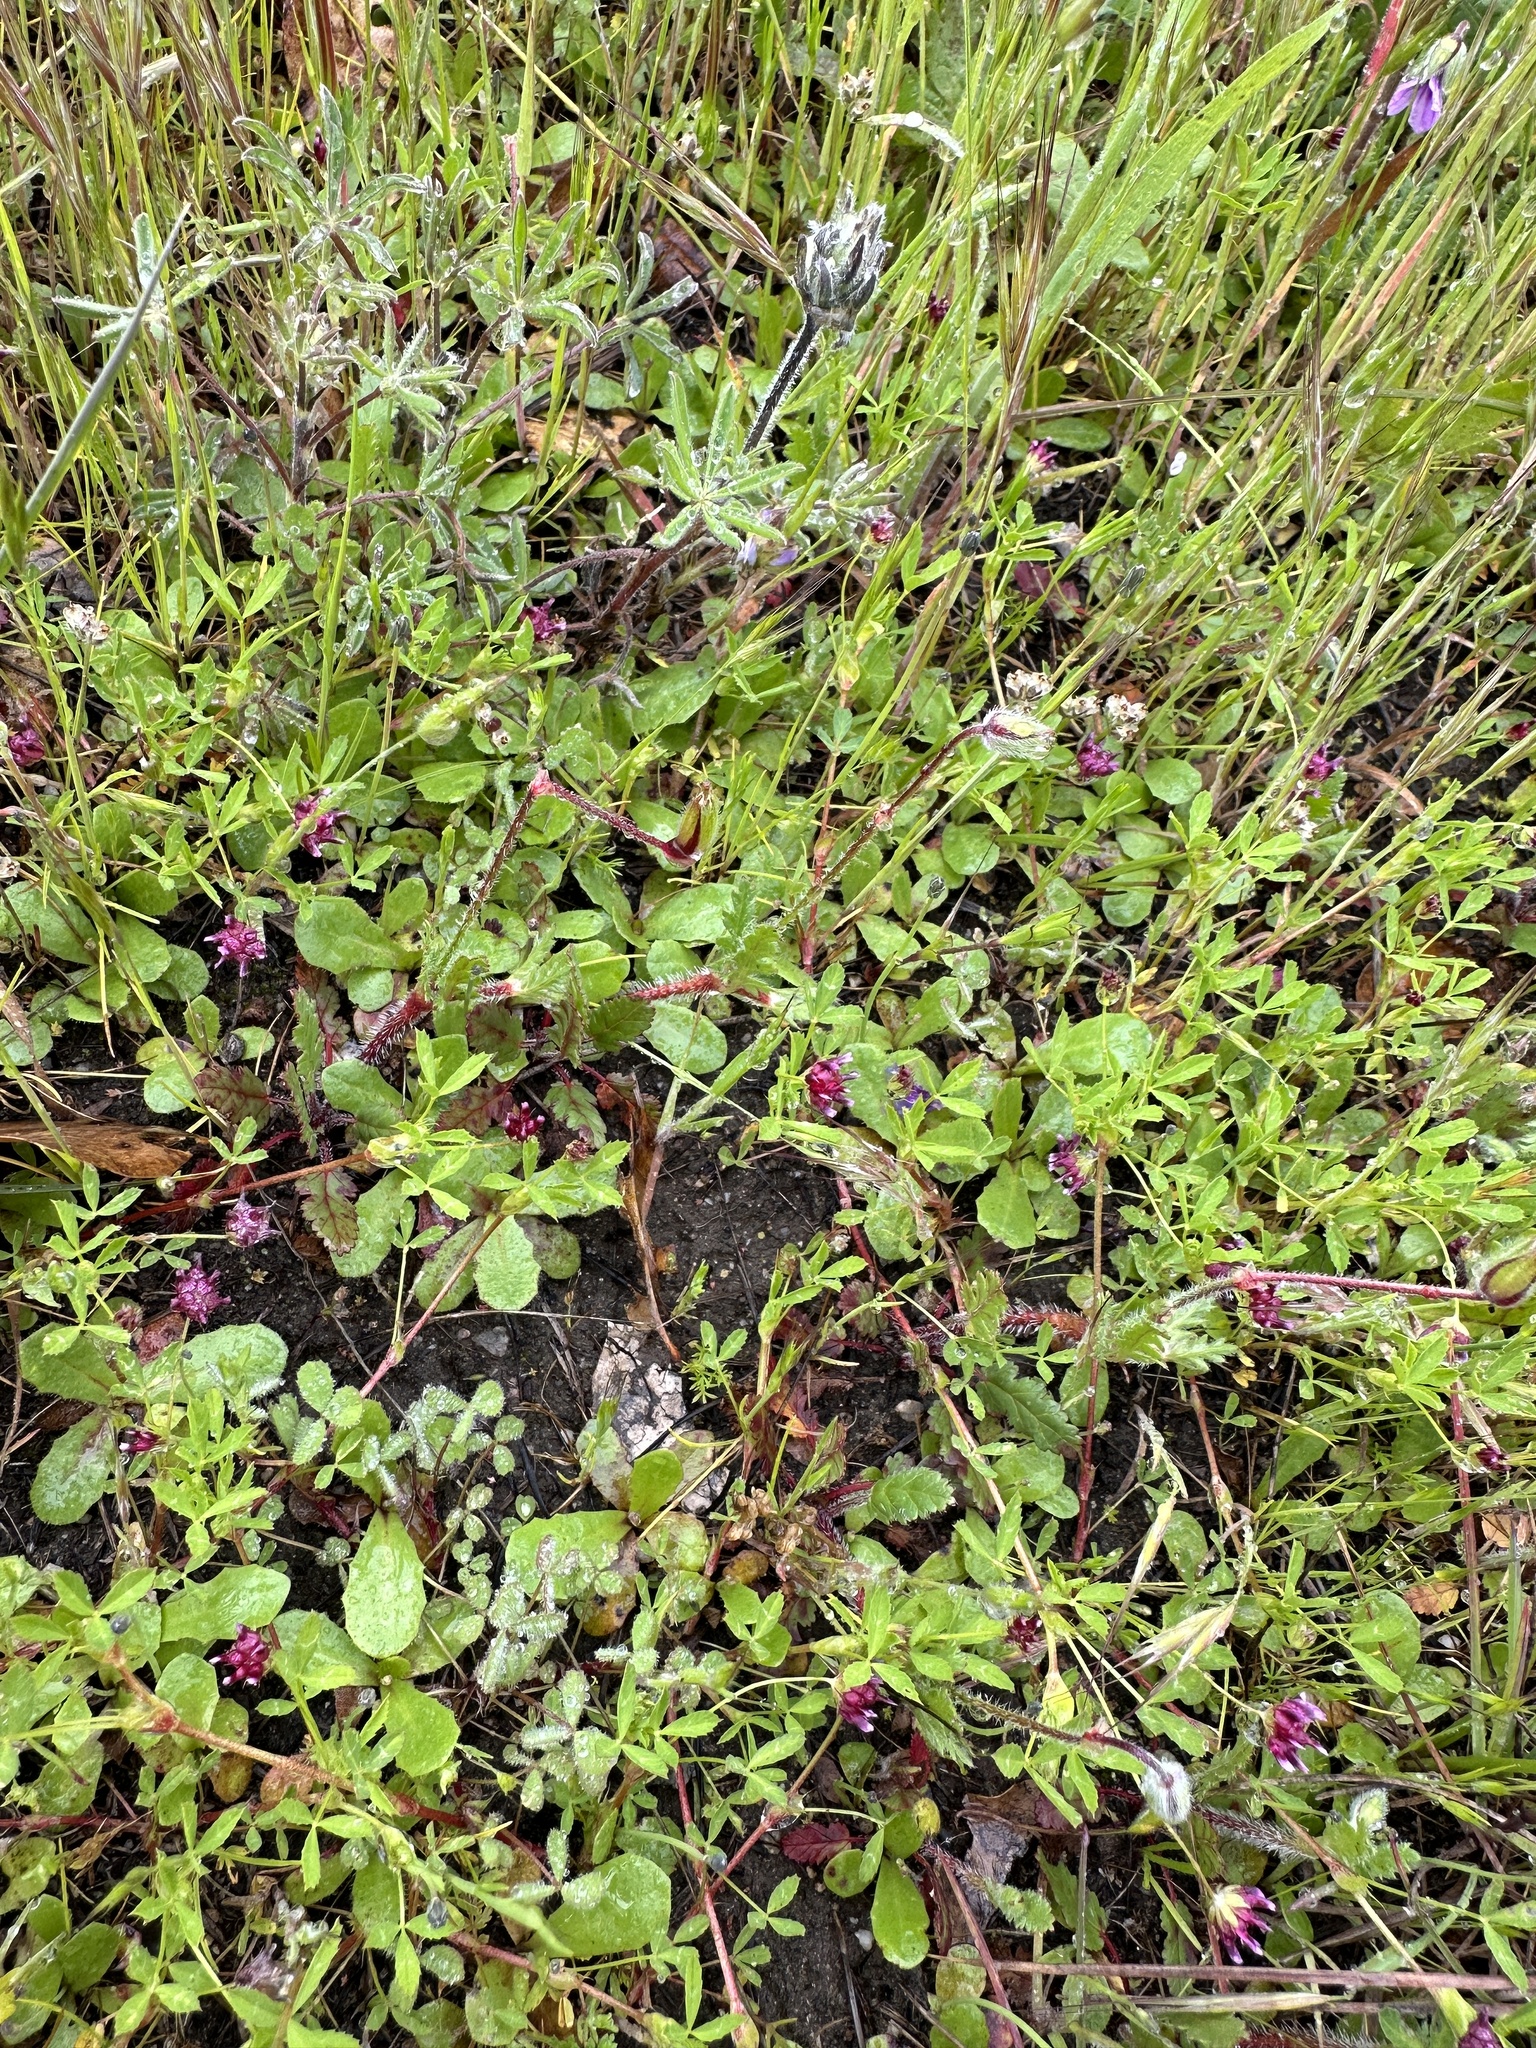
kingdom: Plantae
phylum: Tracheophyta
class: Magnoliopsida
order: Fabales
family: Fabaceae
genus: Trifolium
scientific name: Trifolium depauperatum
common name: Poverty clover
